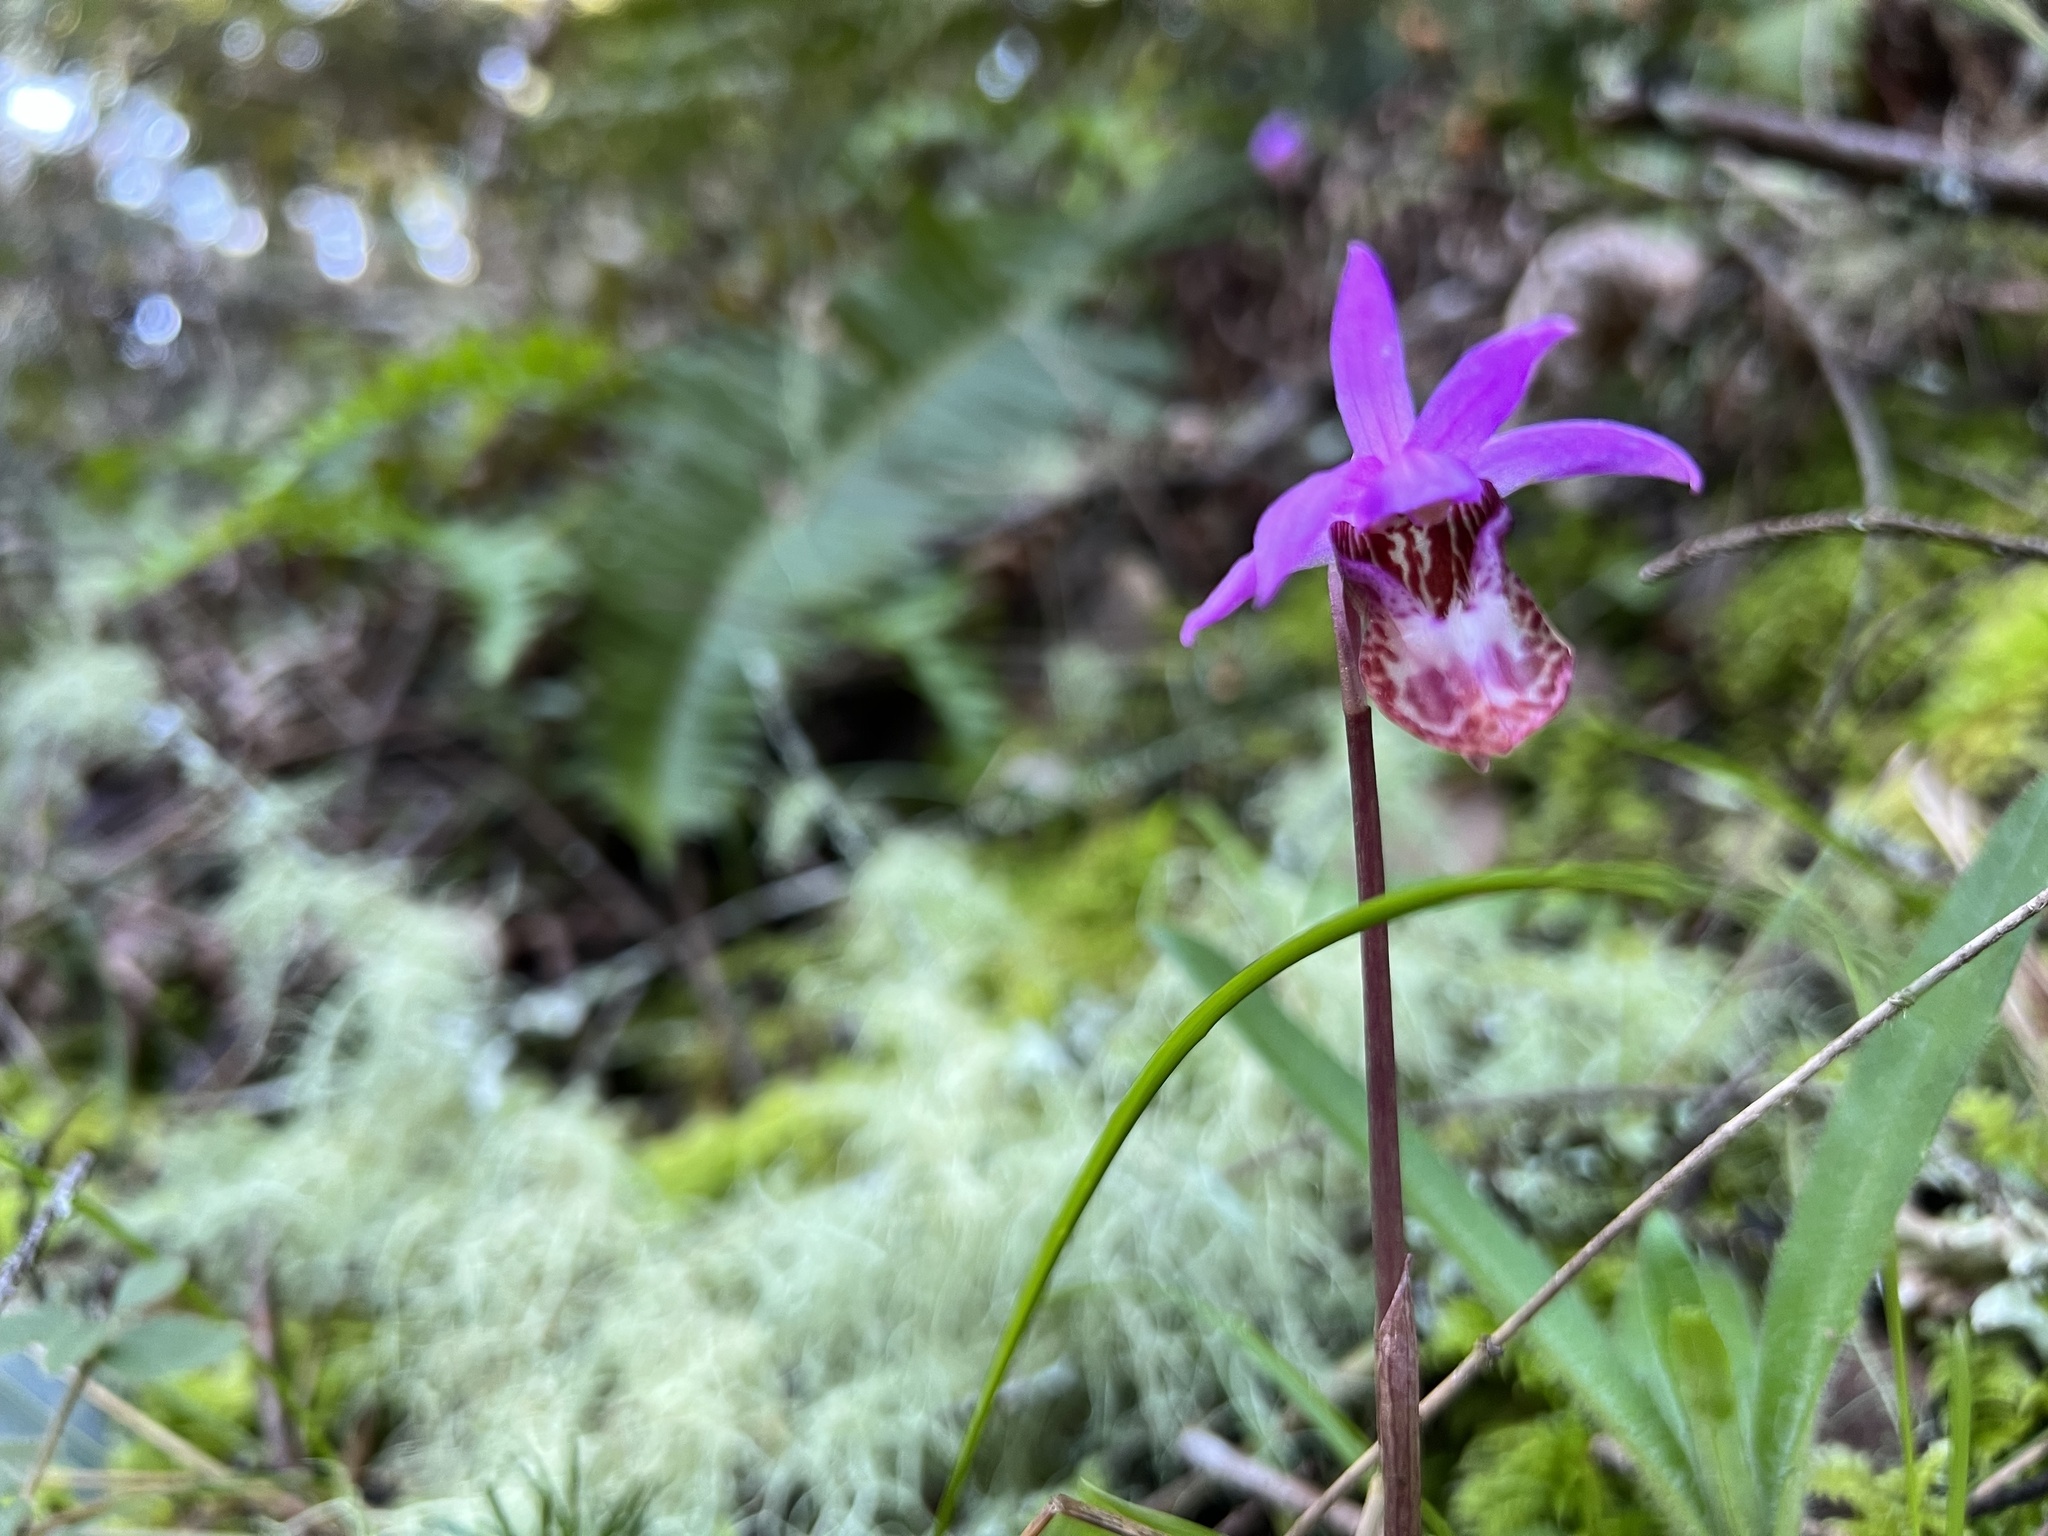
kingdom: Plantae
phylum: Tracheophyta
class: Liliopsida
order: Asparagales
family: Orchidaceae
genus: Calypso
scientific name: Calypso bulbosa
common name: Calypso
